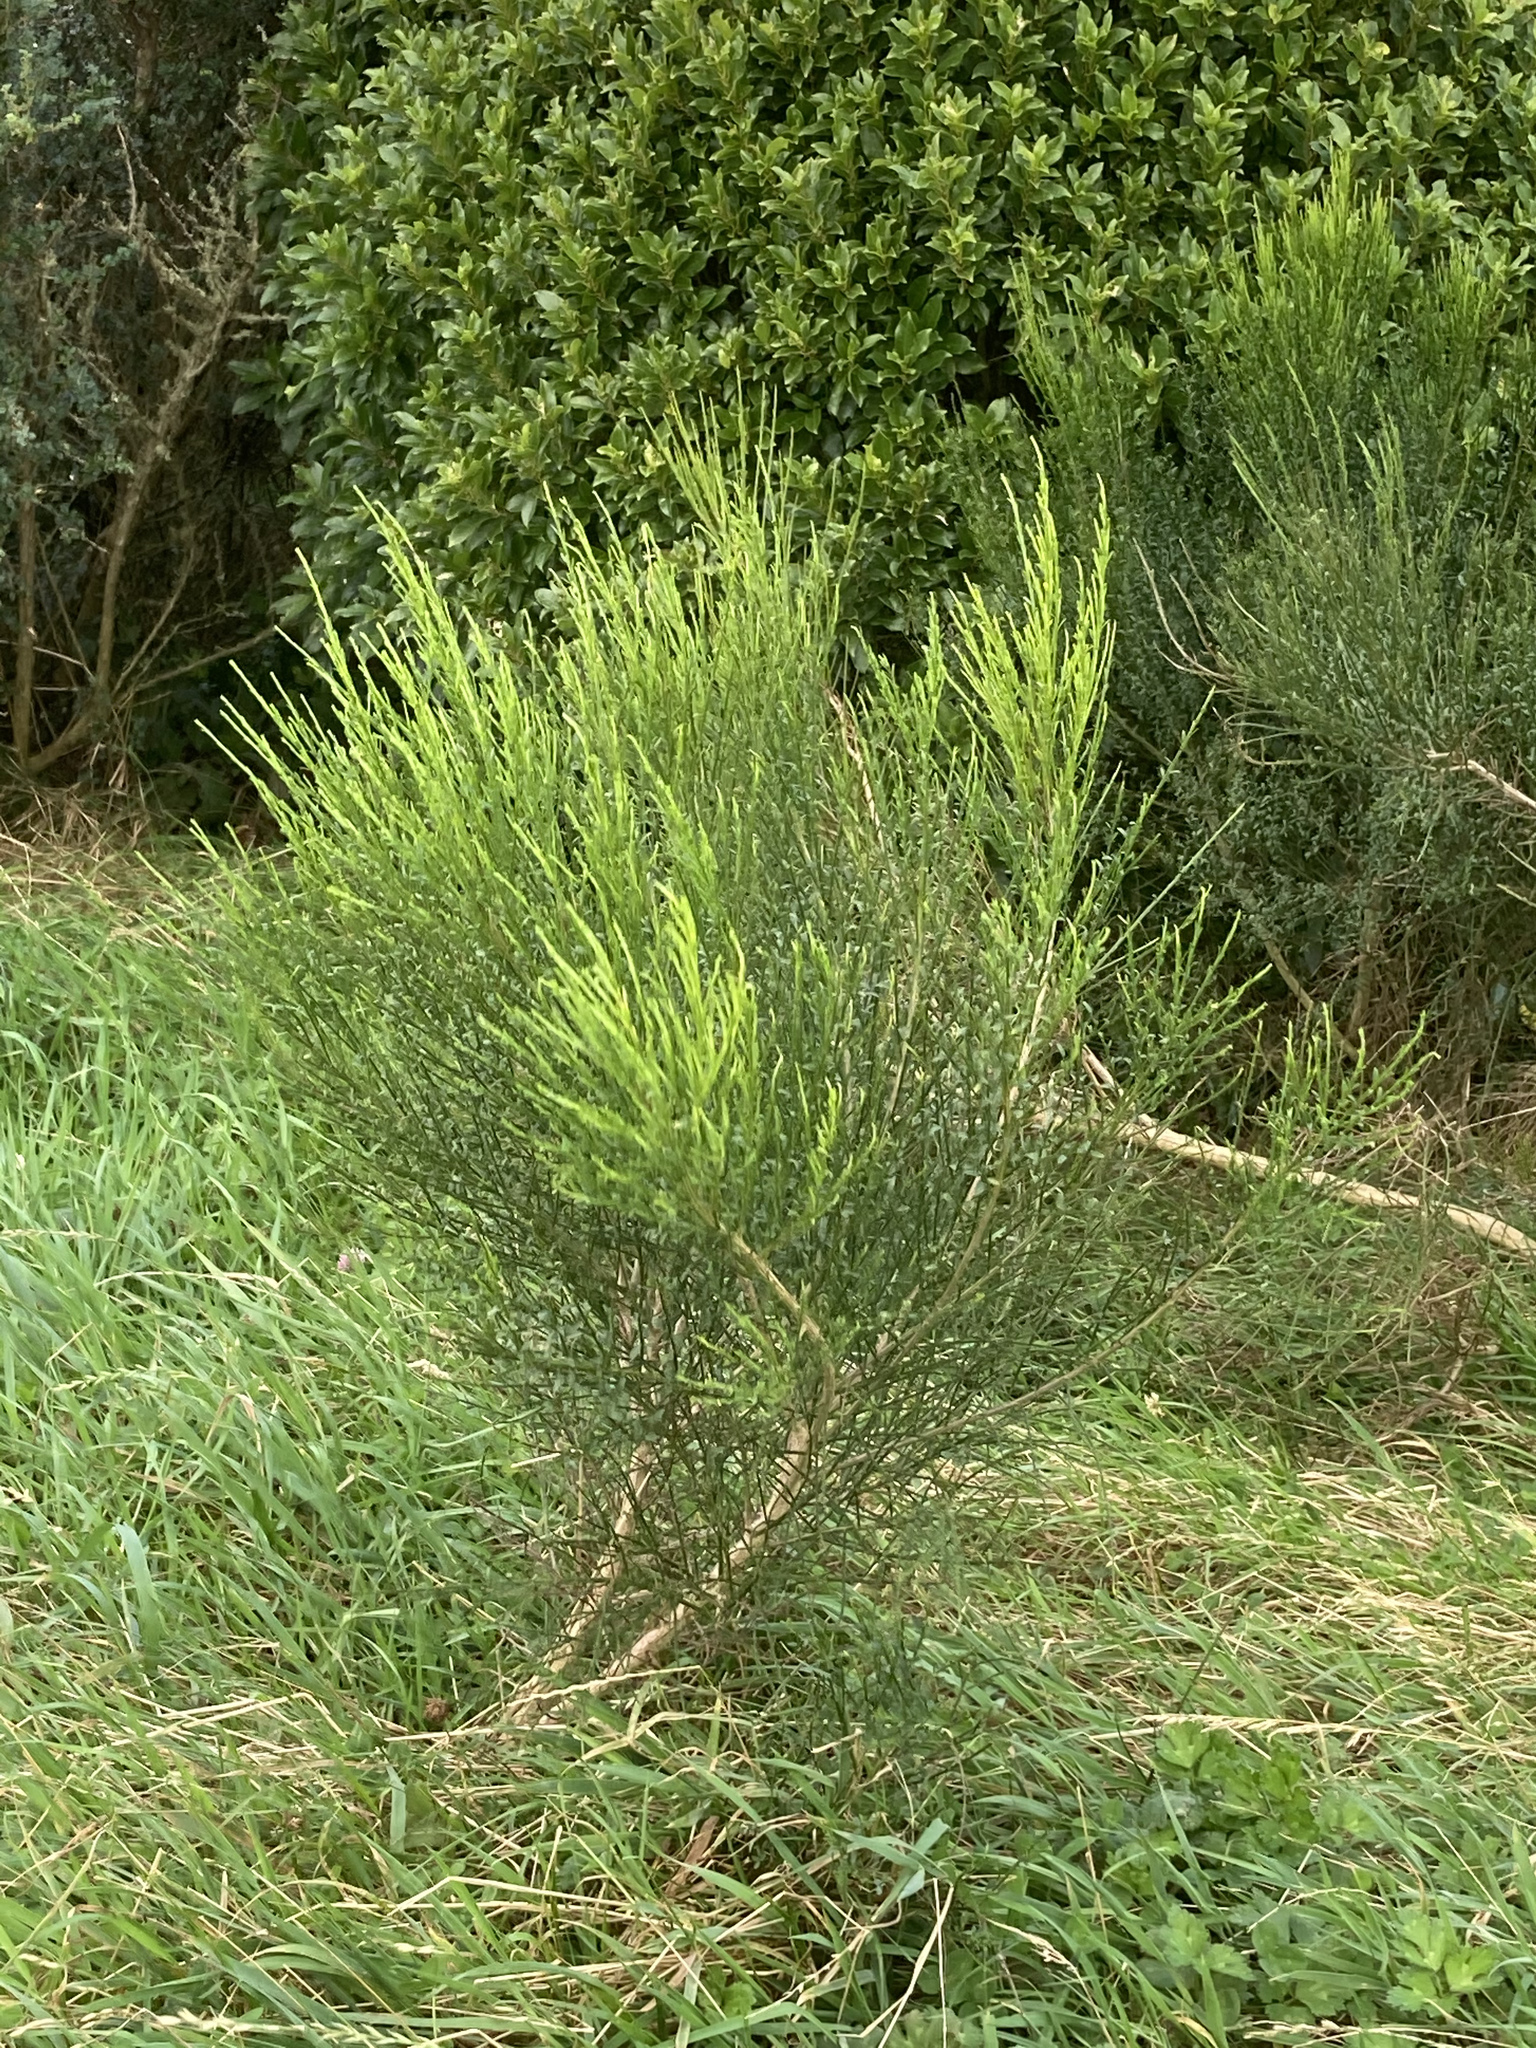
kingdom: Plantae
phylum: Tracheophyta
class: Magnoliopsida
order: Fabales
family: Fabaceae
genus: Cytisus
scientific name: Cytisus scoparius
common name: Scotch broom
